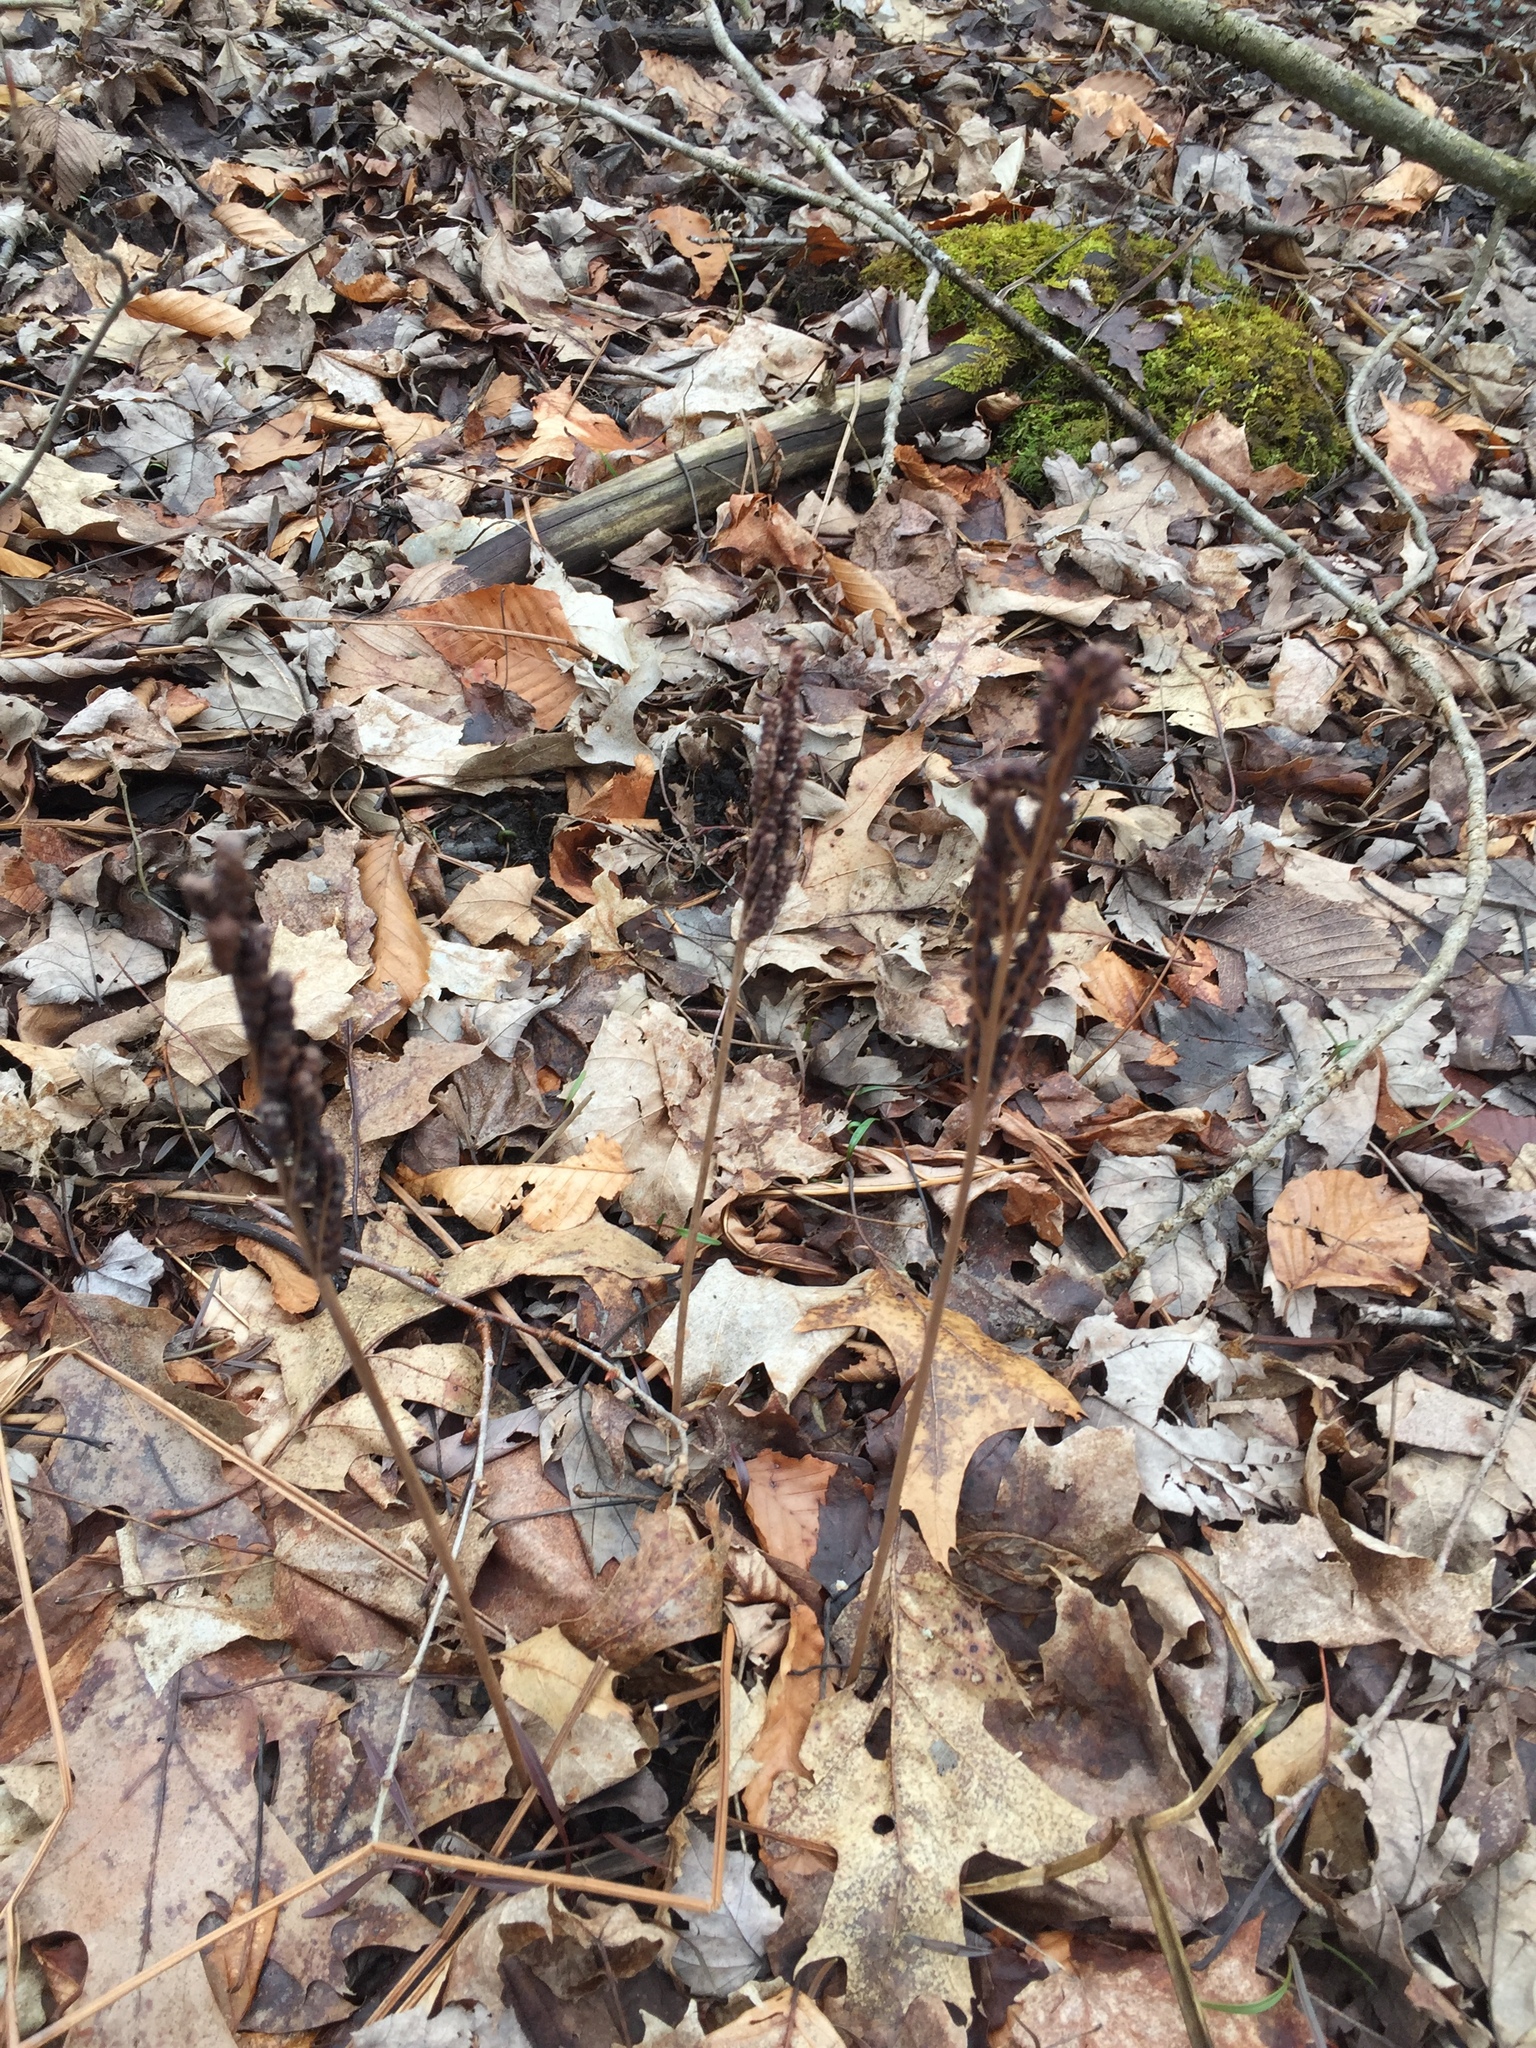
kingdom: Plantae
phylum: Tracheophyta
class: Polypodiopsida
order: Polypodiales
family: Onocleaceae
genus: Onoclea
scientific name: Onoclea sensibilis
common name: Sensitive fern
